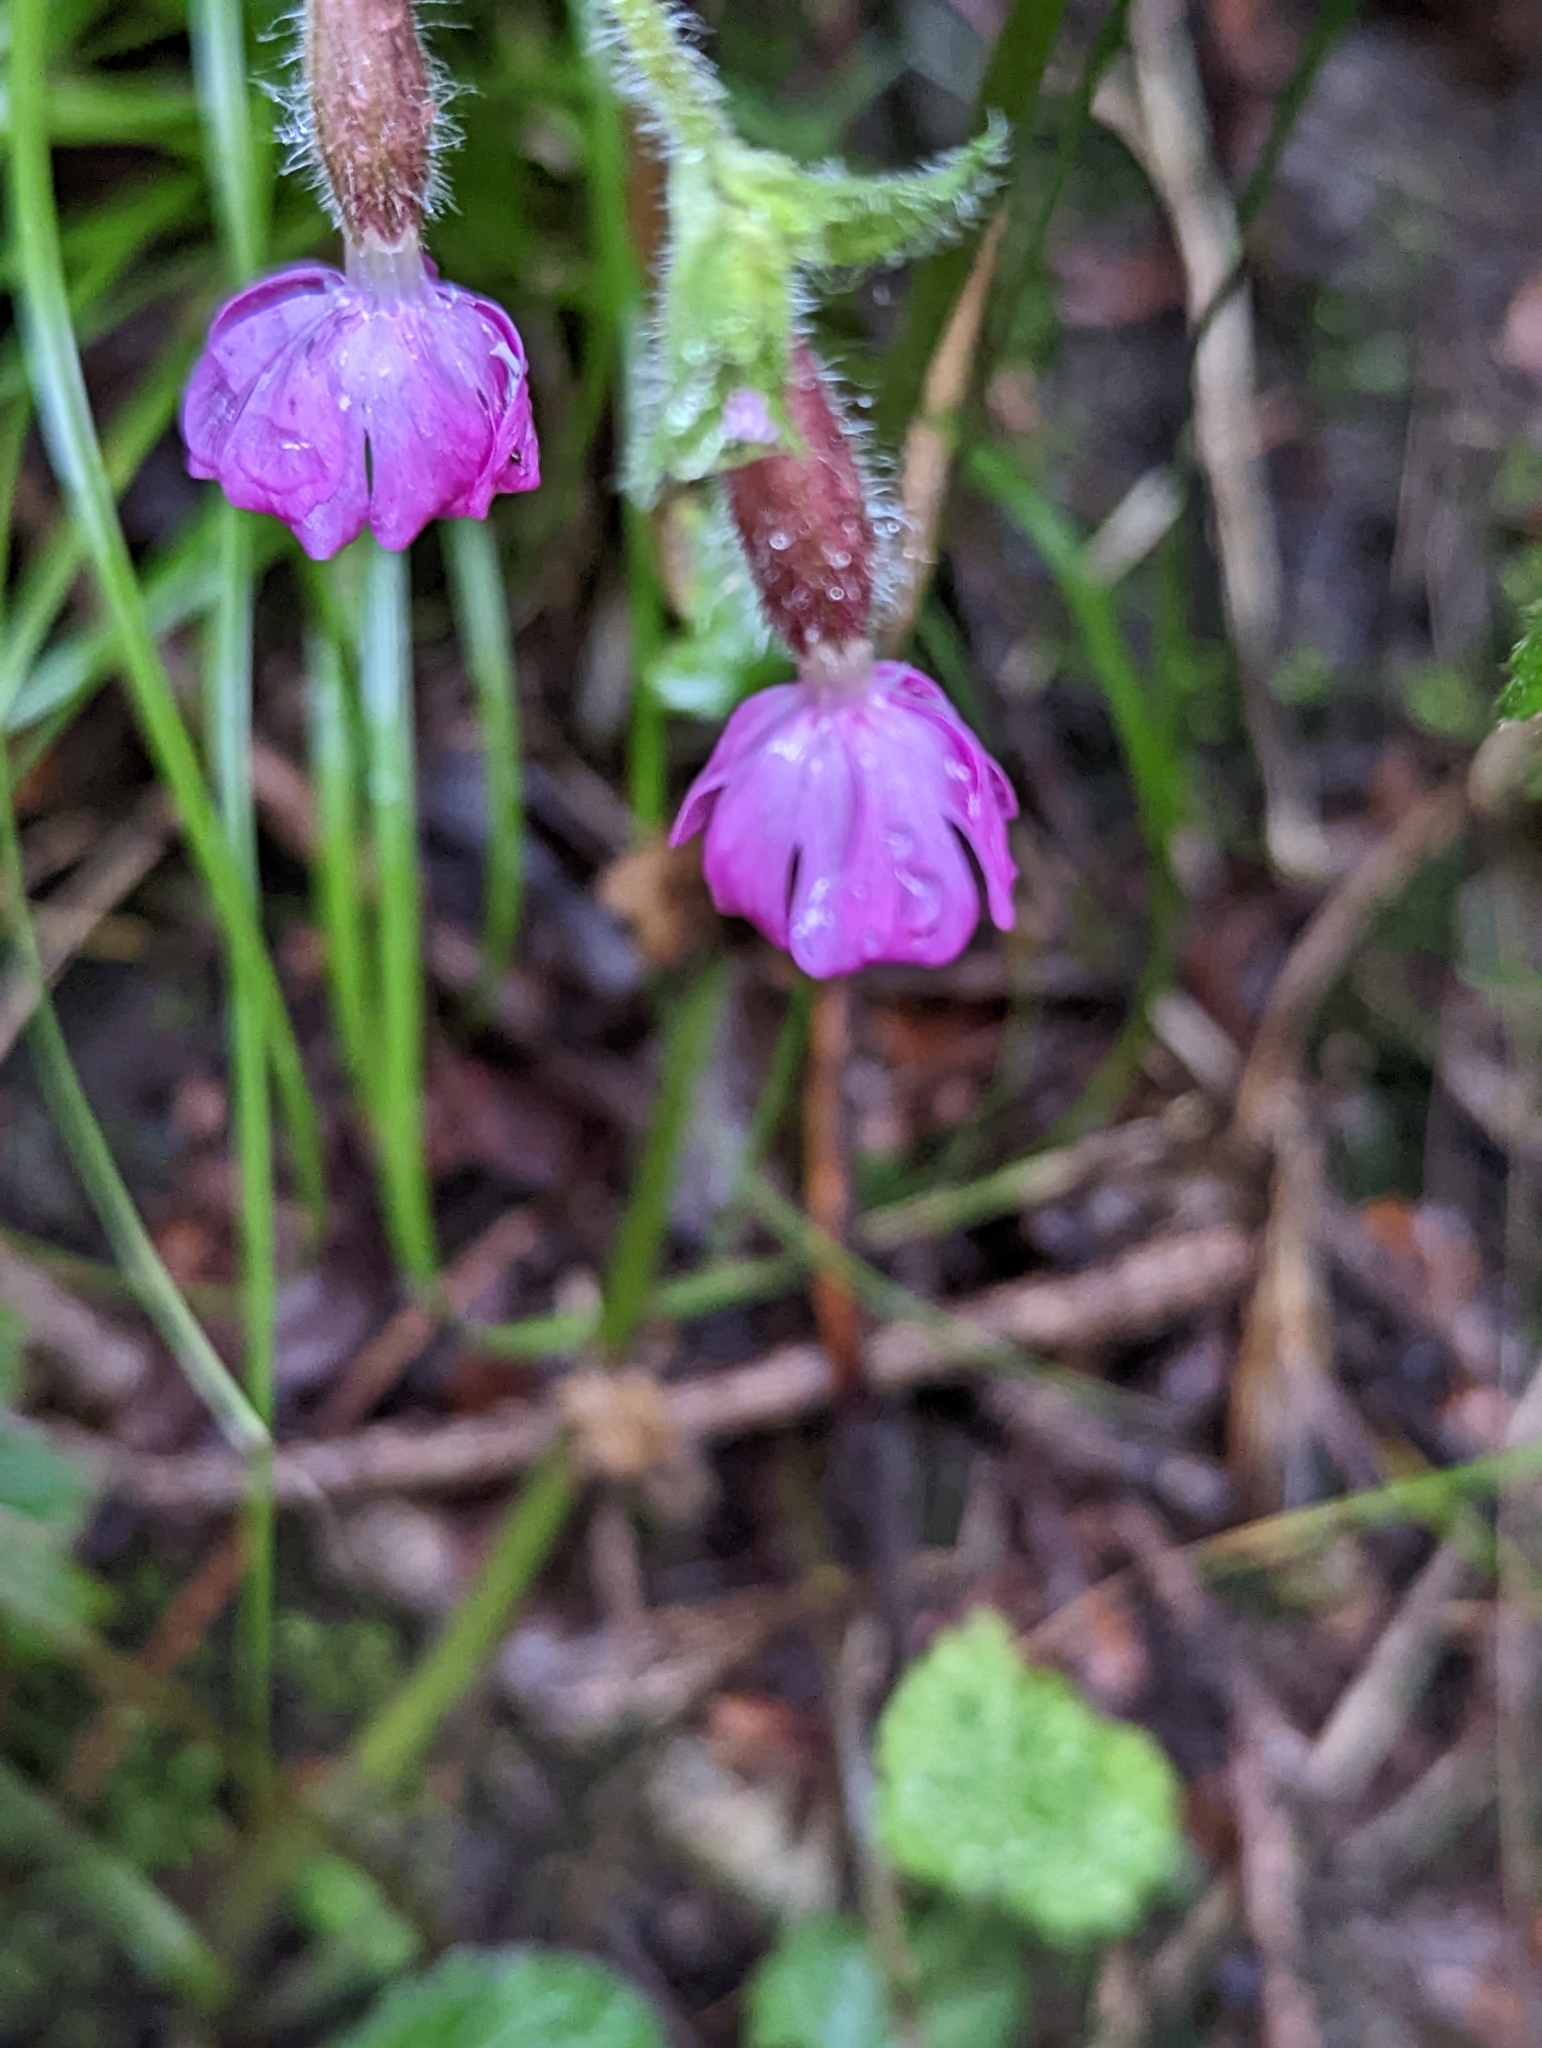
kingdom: Plantae
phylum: Tracheophyta
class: Magnoliopsida
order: Caryophyllales
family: Caryophyllaceae
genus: Silene
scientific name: Silene dioica
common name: Red campion
